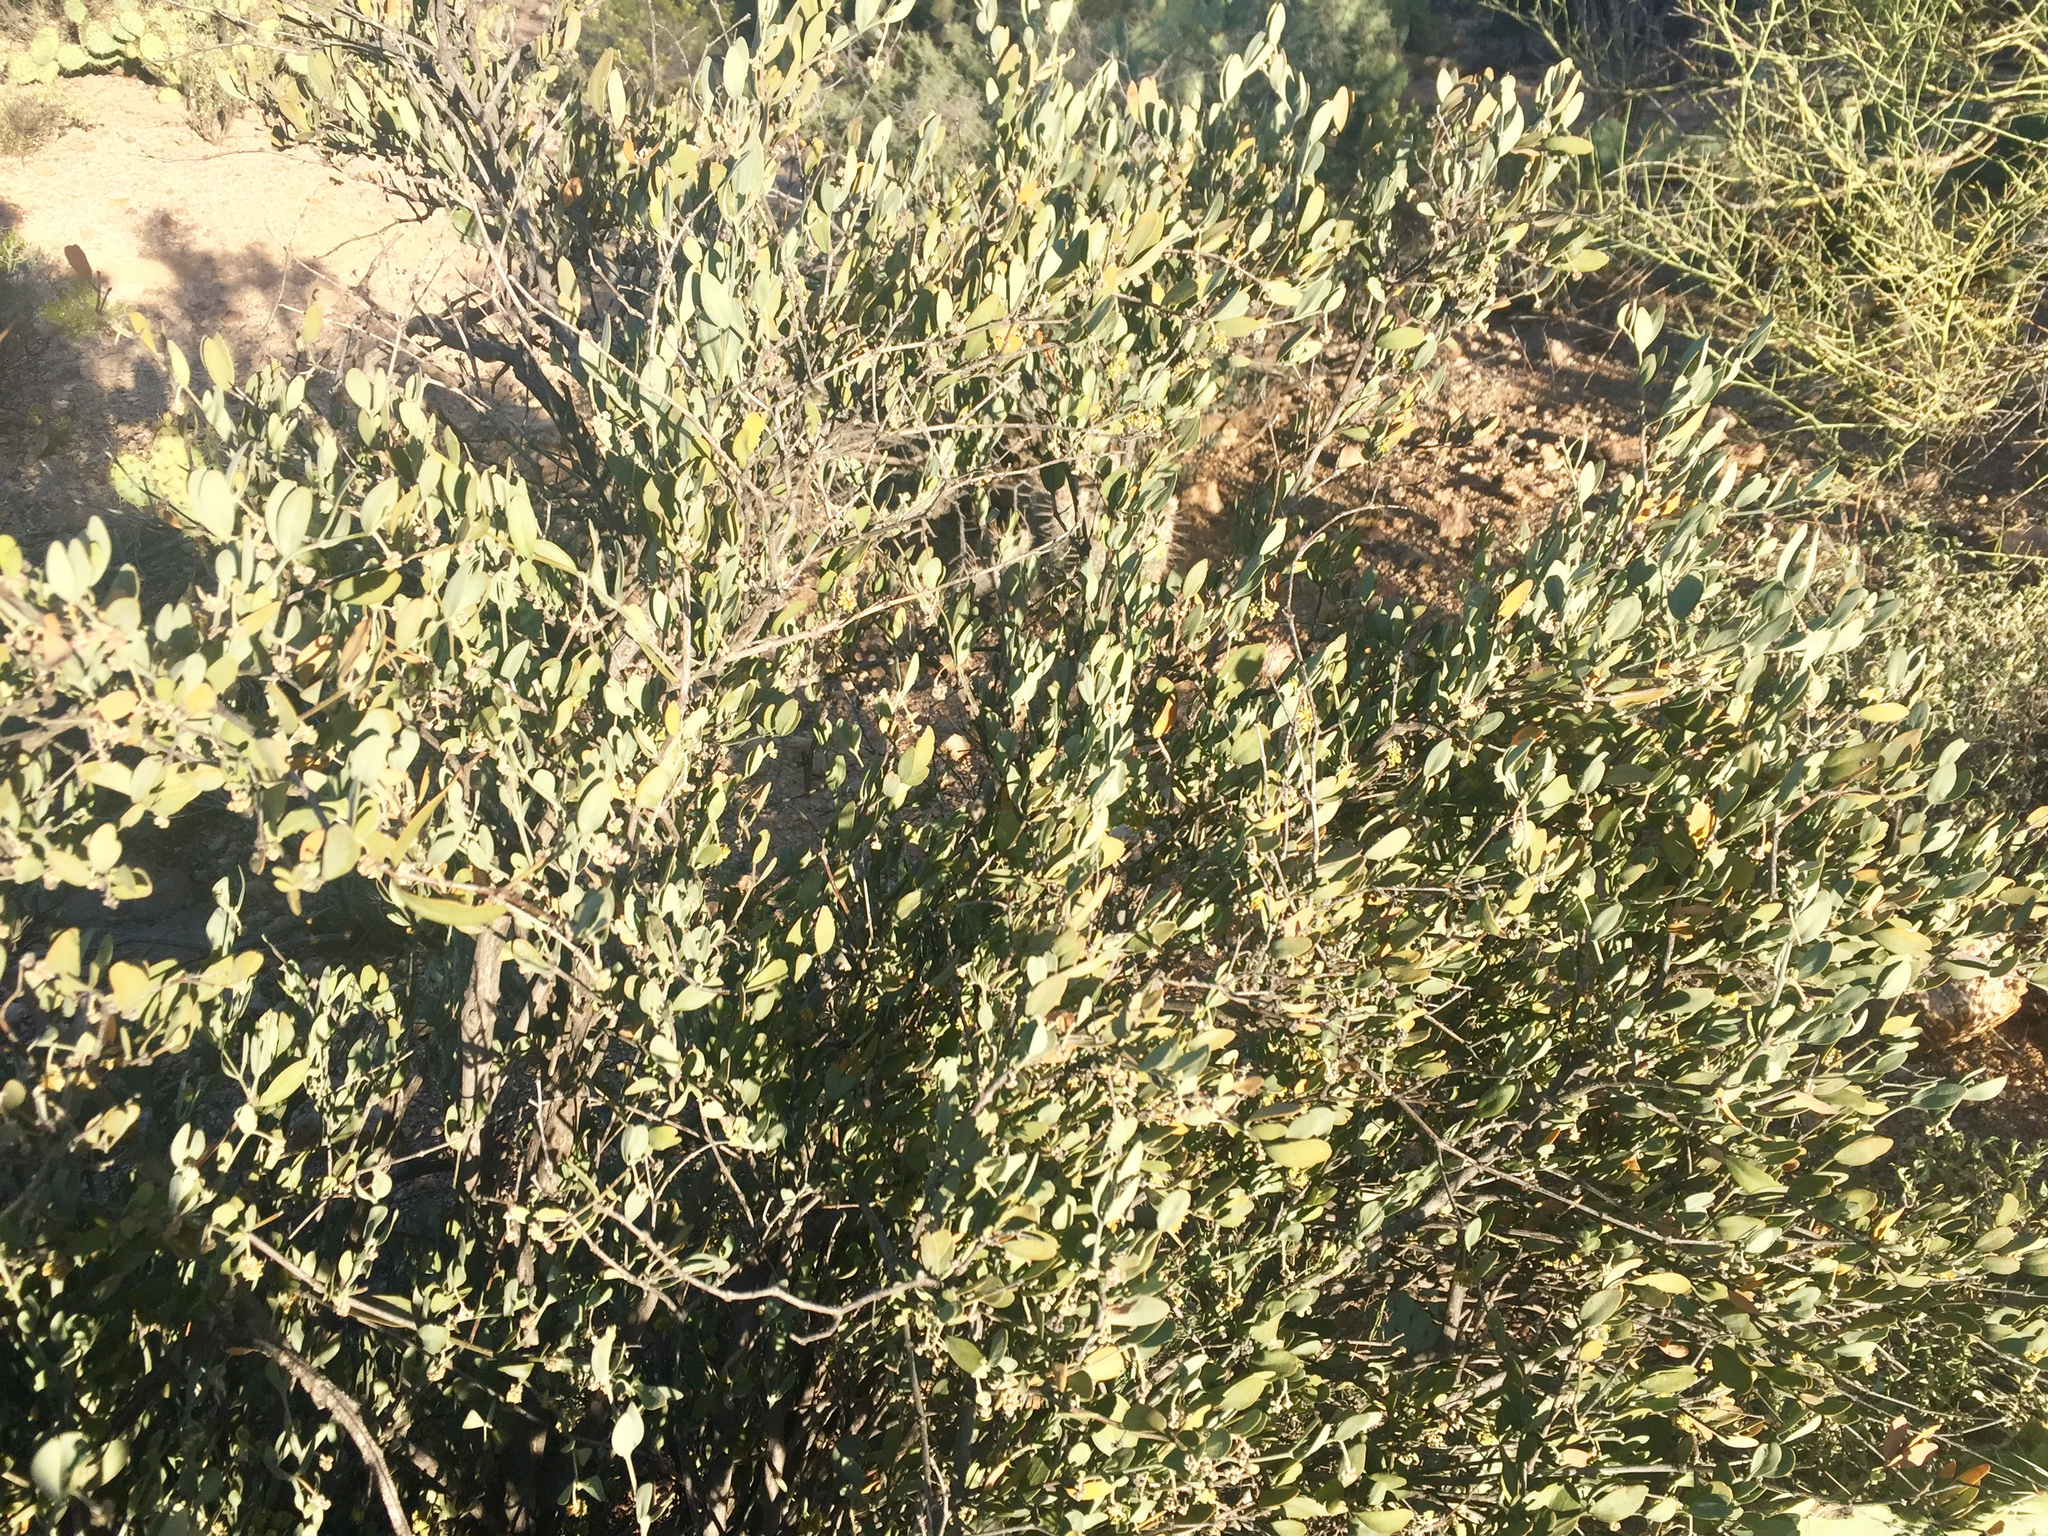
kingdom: Plantae
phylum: Tracheophyta
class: Magnoliopsida
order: Caryophyllales
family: Simmondsiaceae
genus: Simmondsia
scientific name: Simmondsia chinensis
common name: Jojoba
